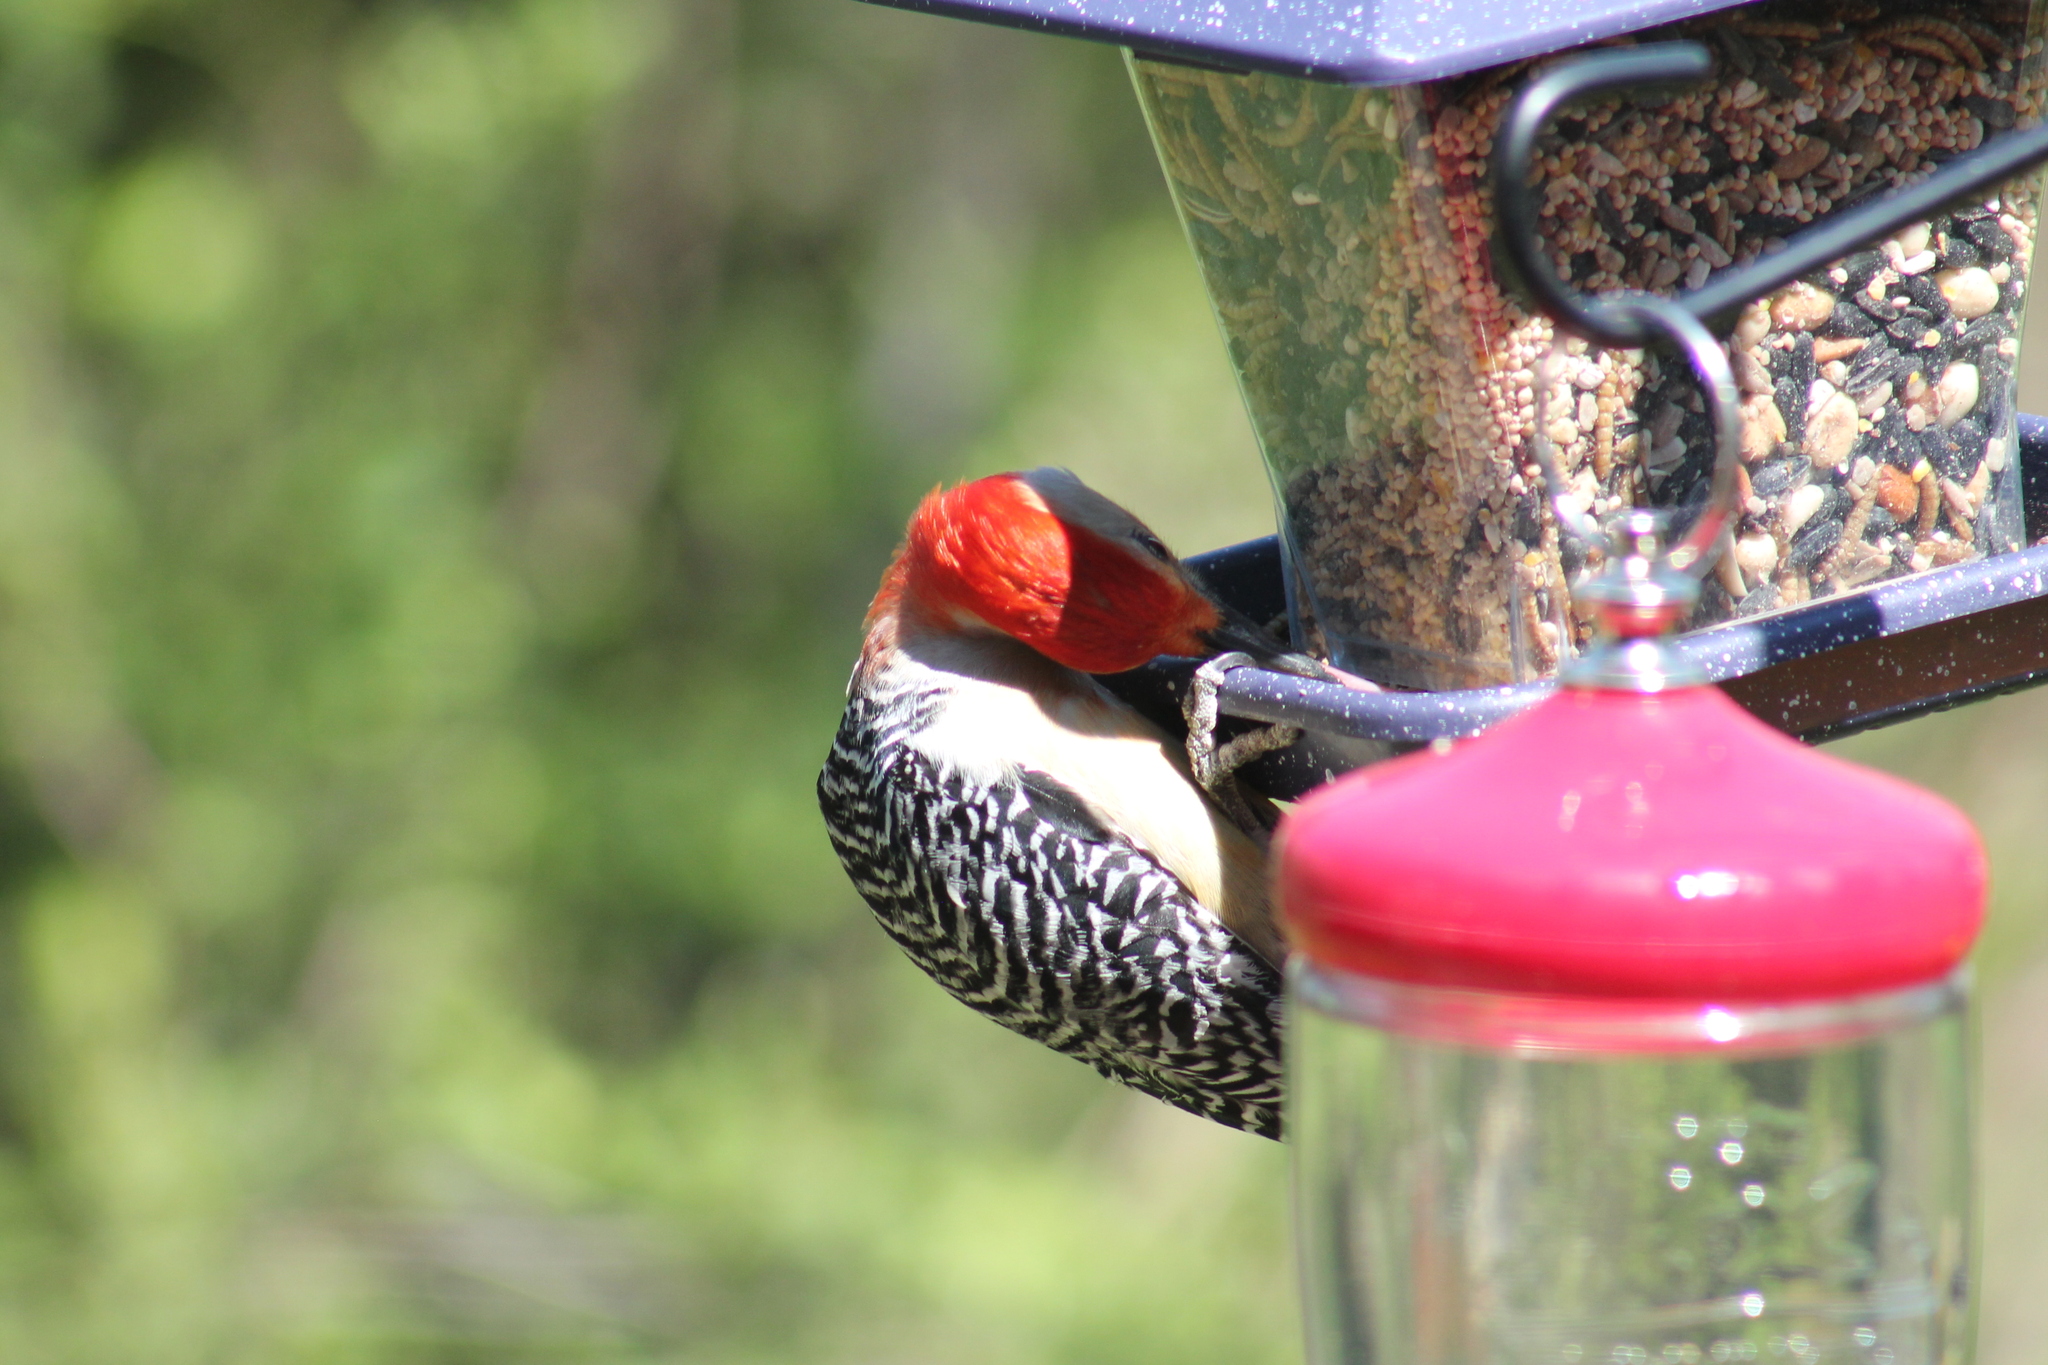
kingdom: Animalia
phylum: Chordata
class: Aves
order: Piciformes
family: Picidae
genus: Melanerpes
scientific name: Melanerpes carolinus
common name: Red-bellied woodpecker
